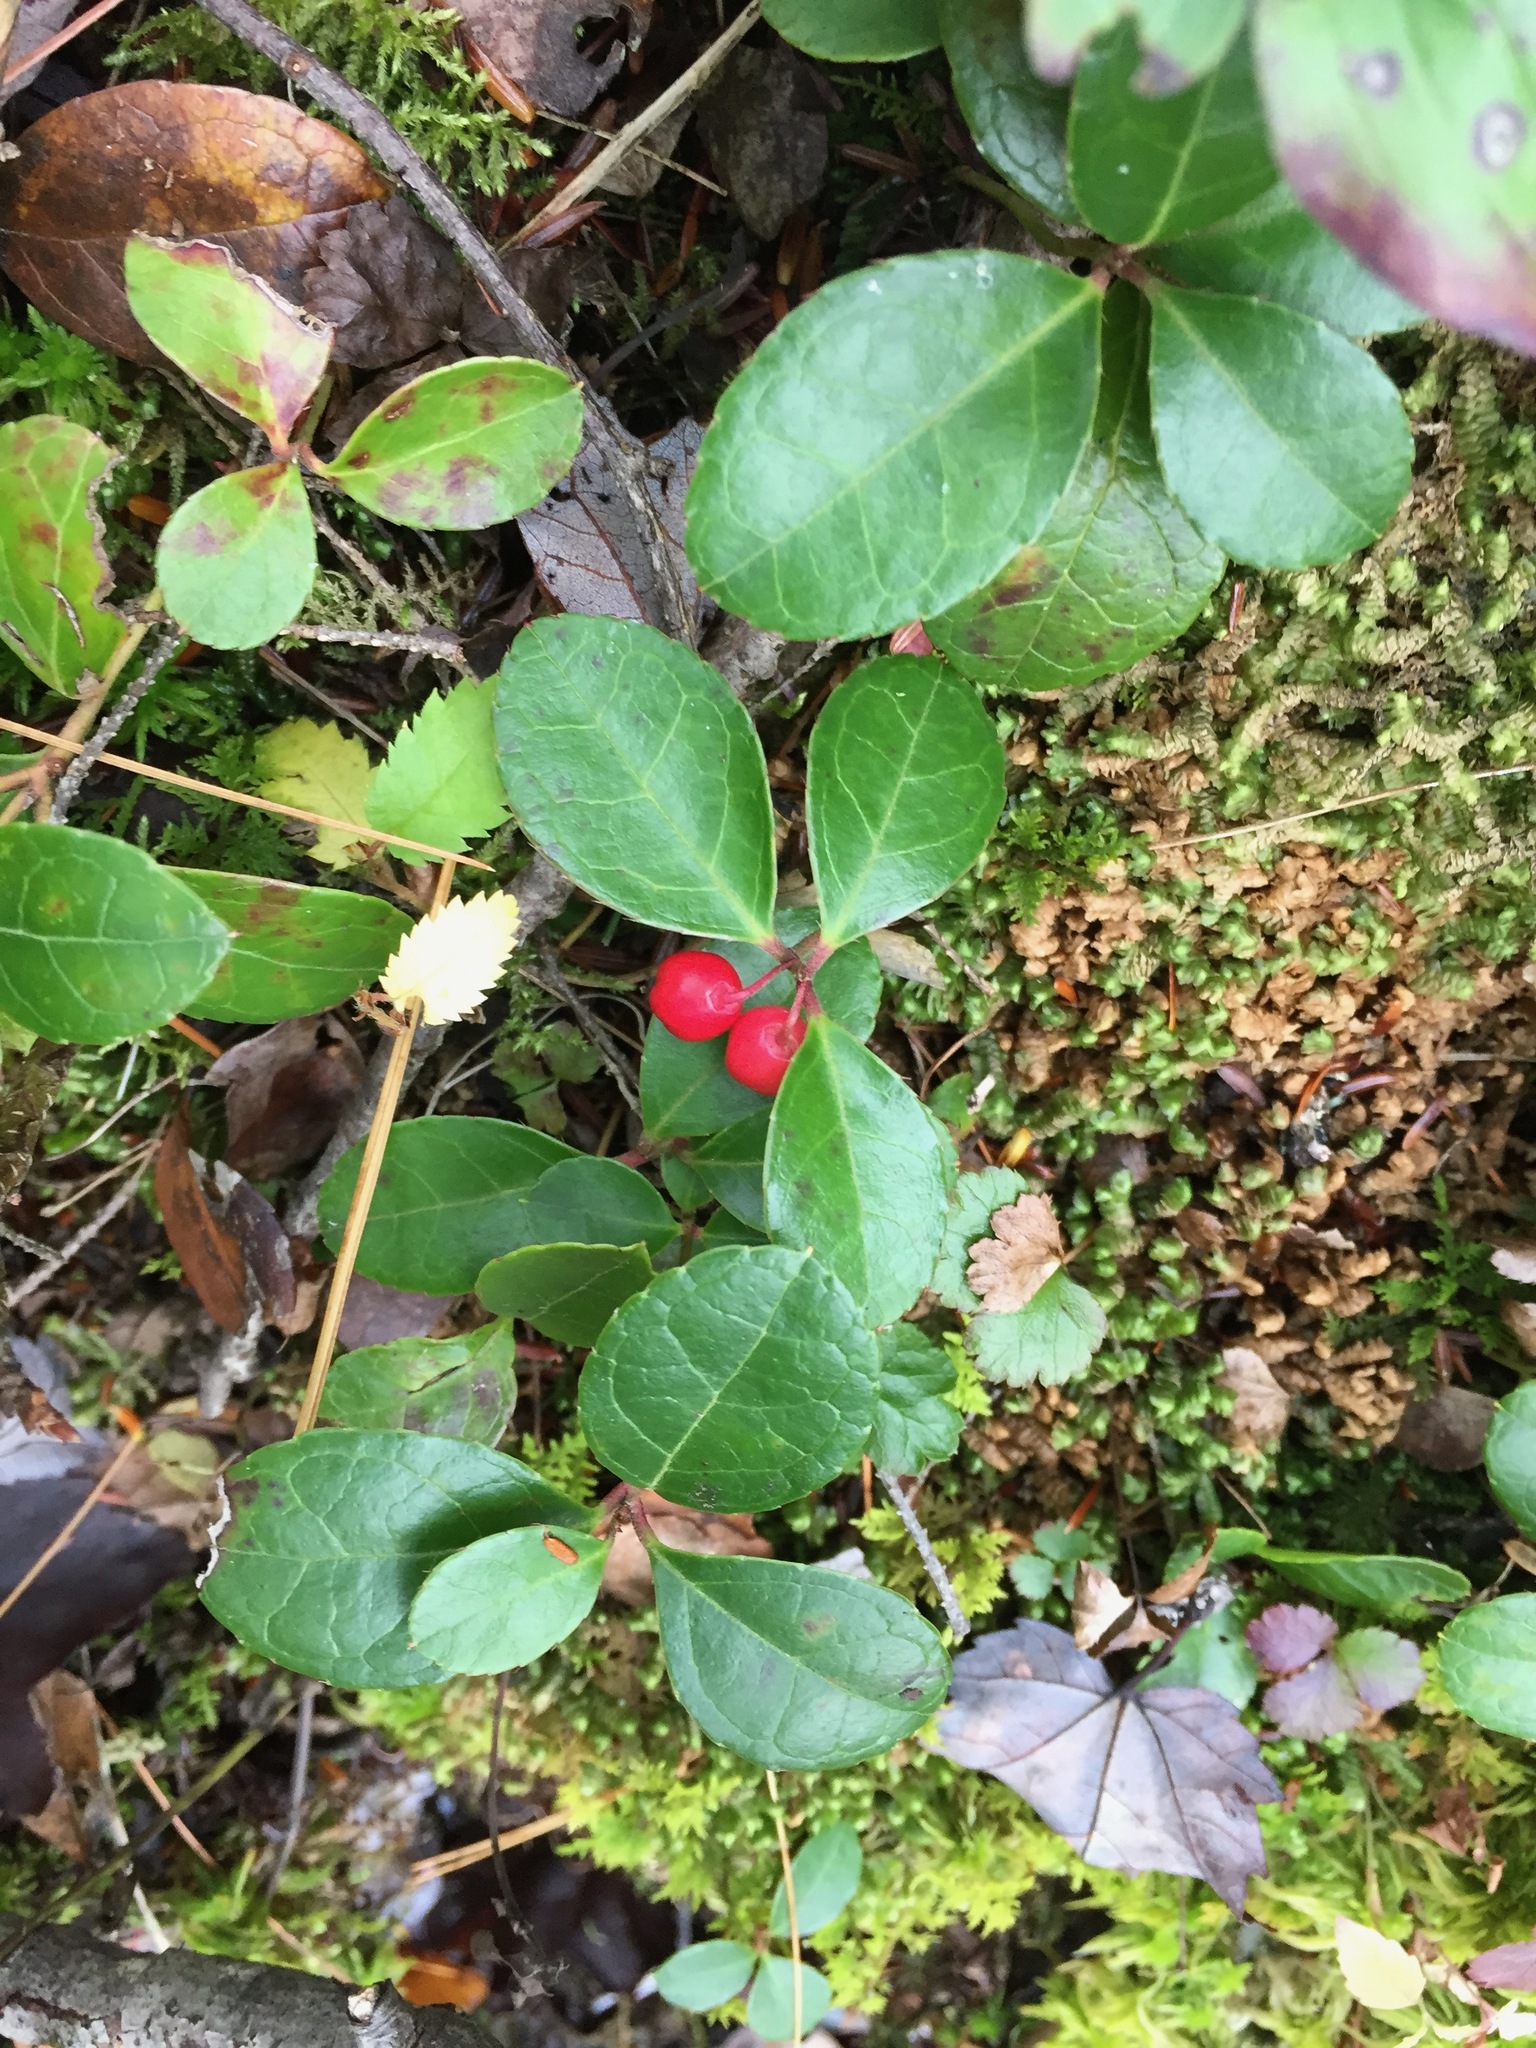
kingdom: Plantae
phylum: Tracheophyta
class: Magnoliopsida
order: Ericales
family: Ericaceae
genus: Gaultheria
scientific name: Gaultheria procumbens
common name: Checkerberry
